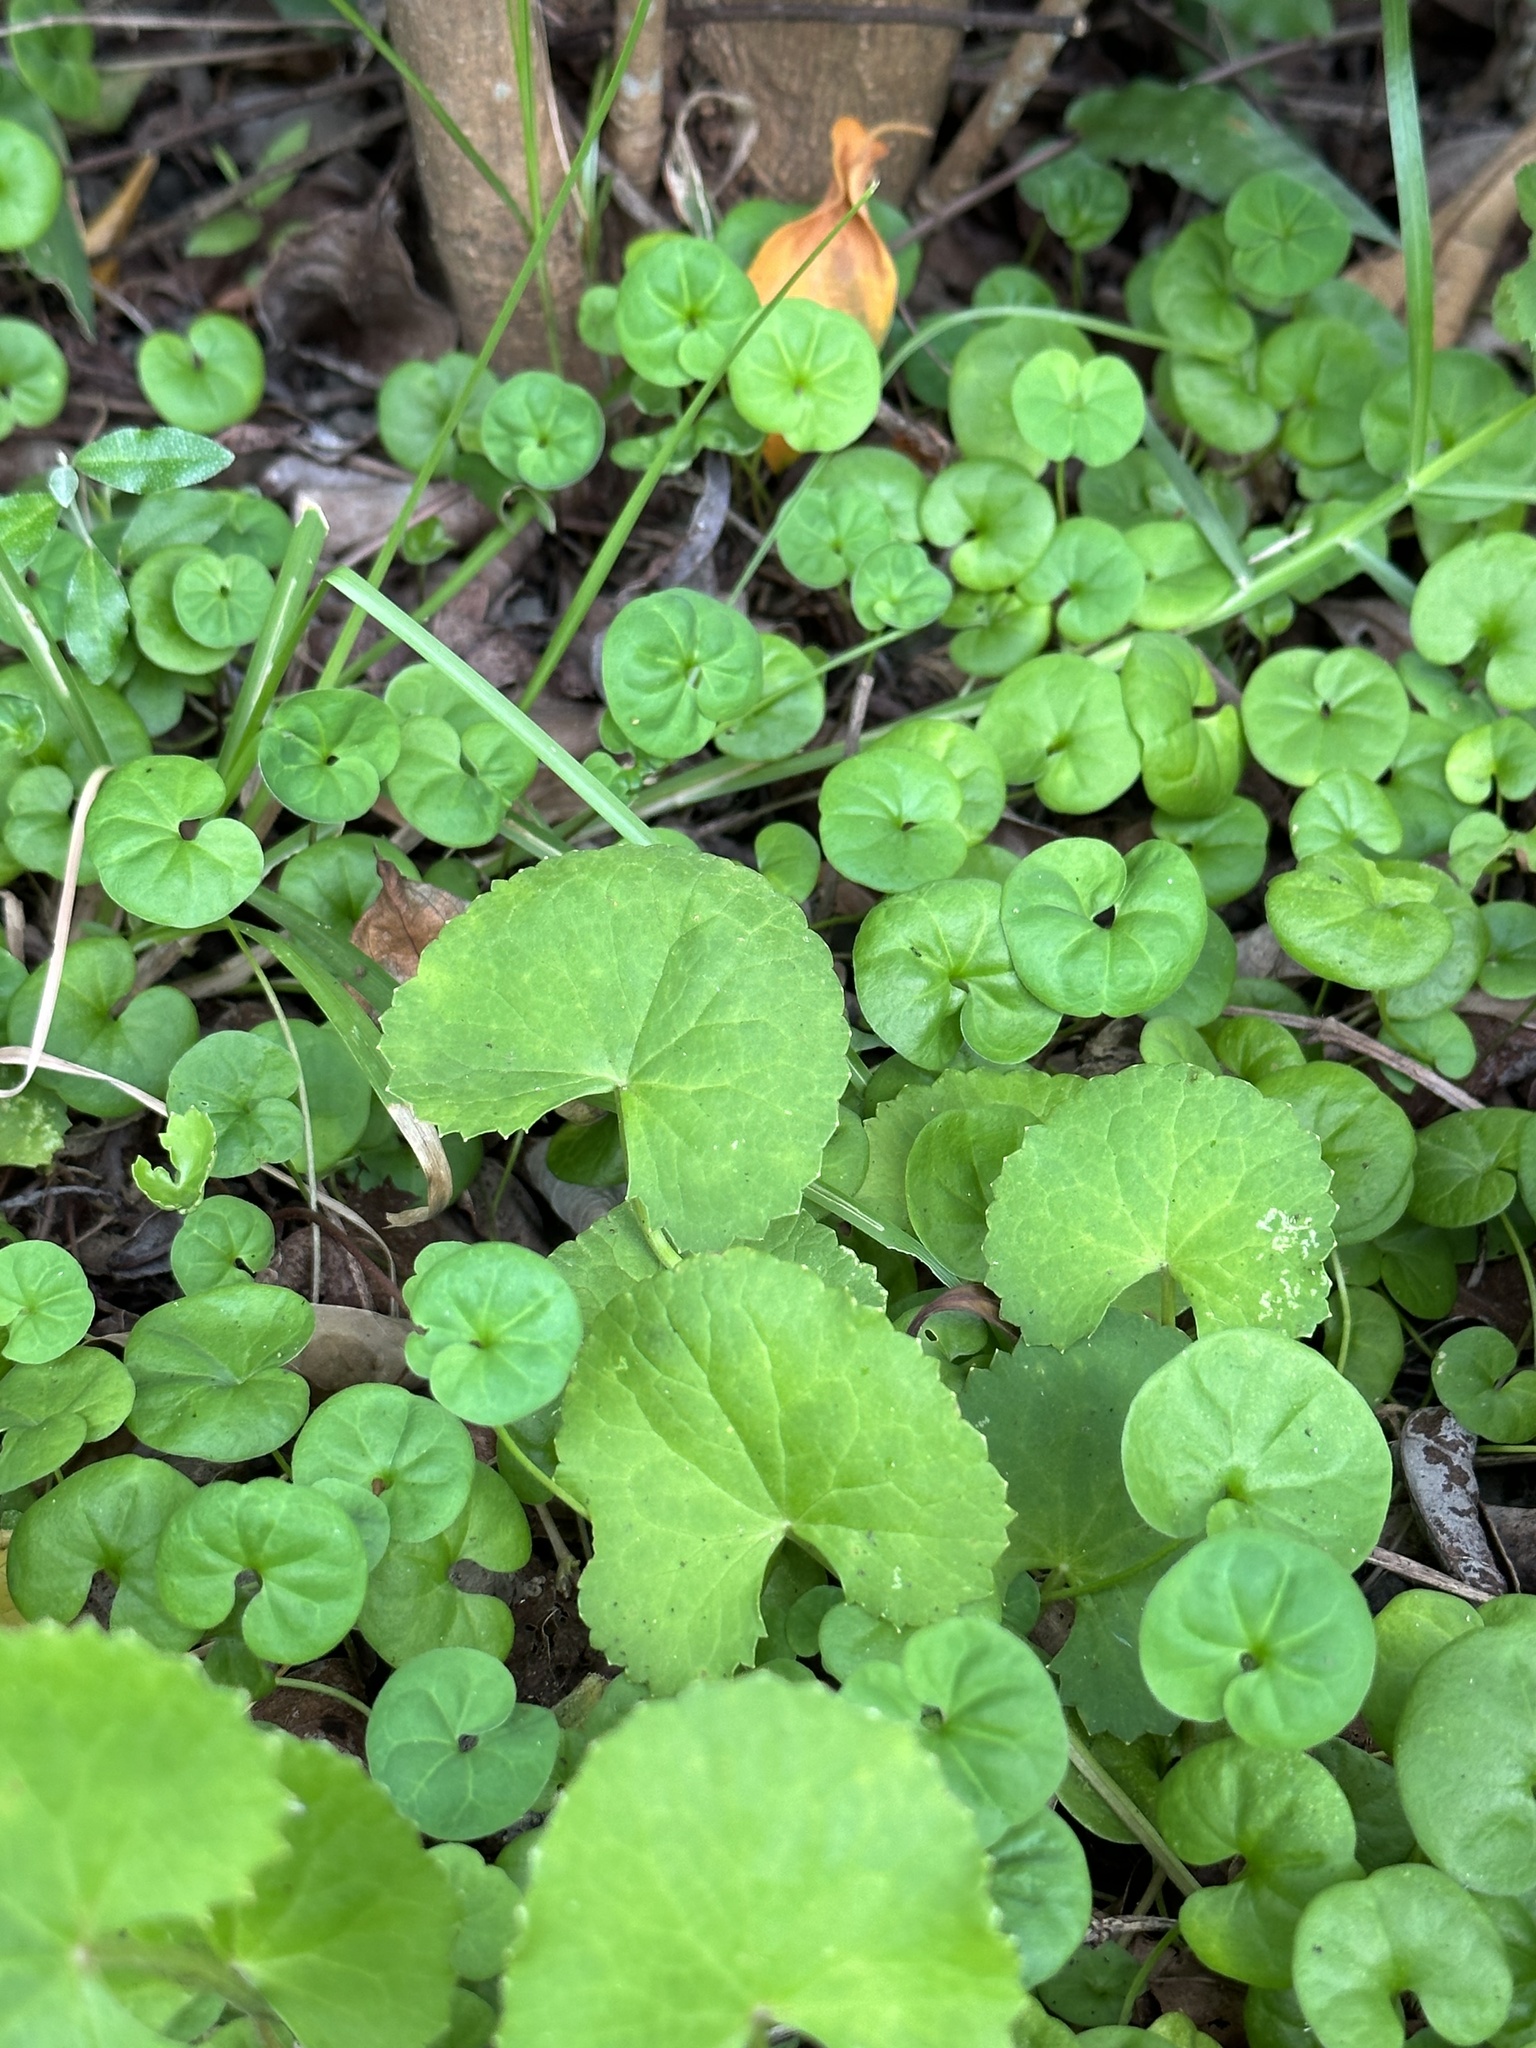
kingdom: Plantae
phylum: Tracheophyta
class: Magnoliopsida
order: Apiales
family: Apiaceae
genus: Centella
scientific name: Centella asiatica
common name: Spadeleaf
